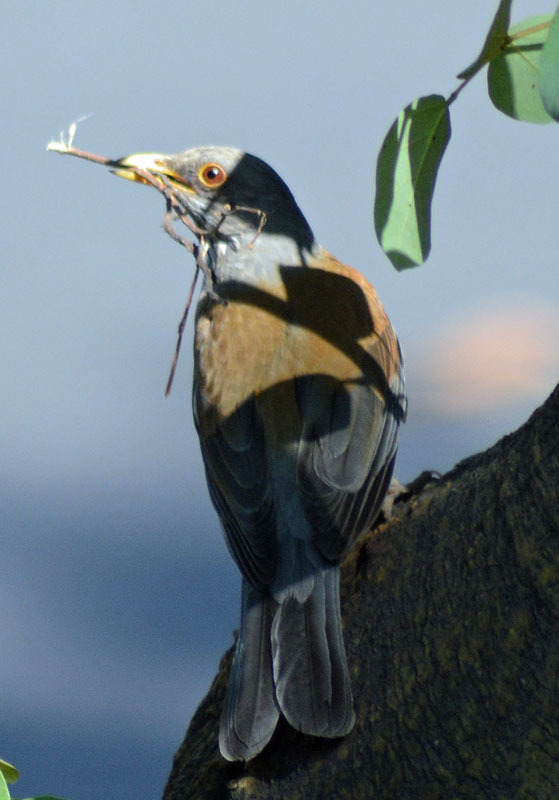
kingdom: Animalia
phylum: Chordata
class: Aves
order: Passeriformes
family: Turdidae
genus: Turdus
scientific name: Turdus rufopalliatus
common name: Rufous-backed robin
